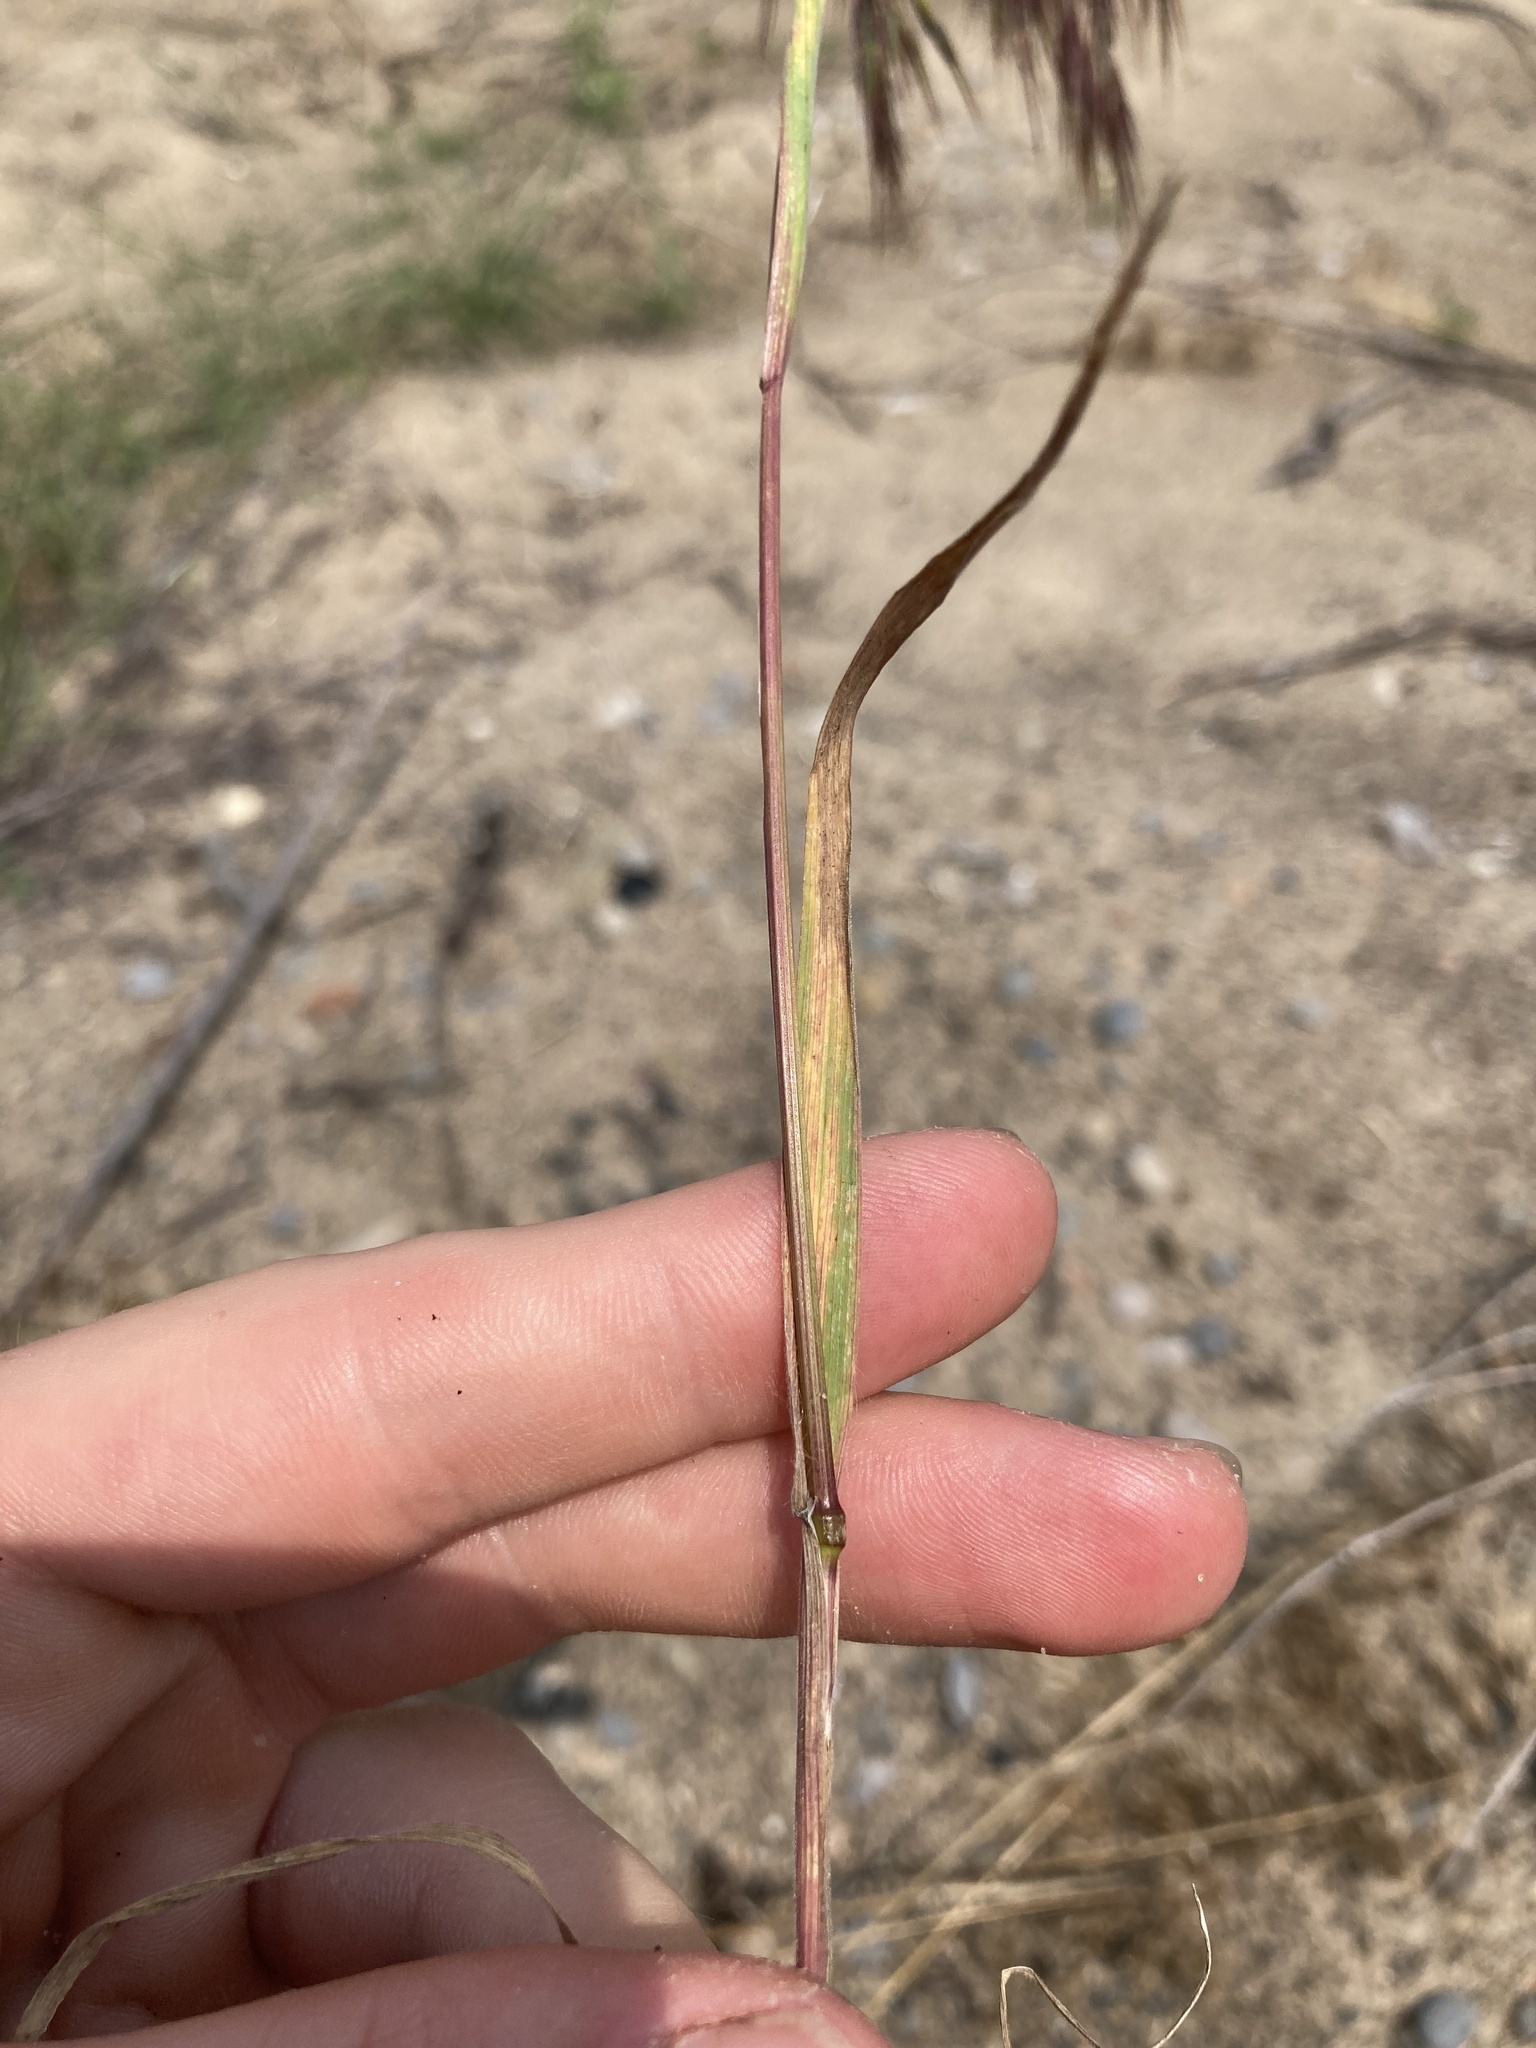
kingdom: Plantae
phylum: Tracheophyta
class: Liliopsida
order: Poales
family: Poaceae
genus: Bromus
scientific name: Bromus tectorum
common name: Cheatgrass
